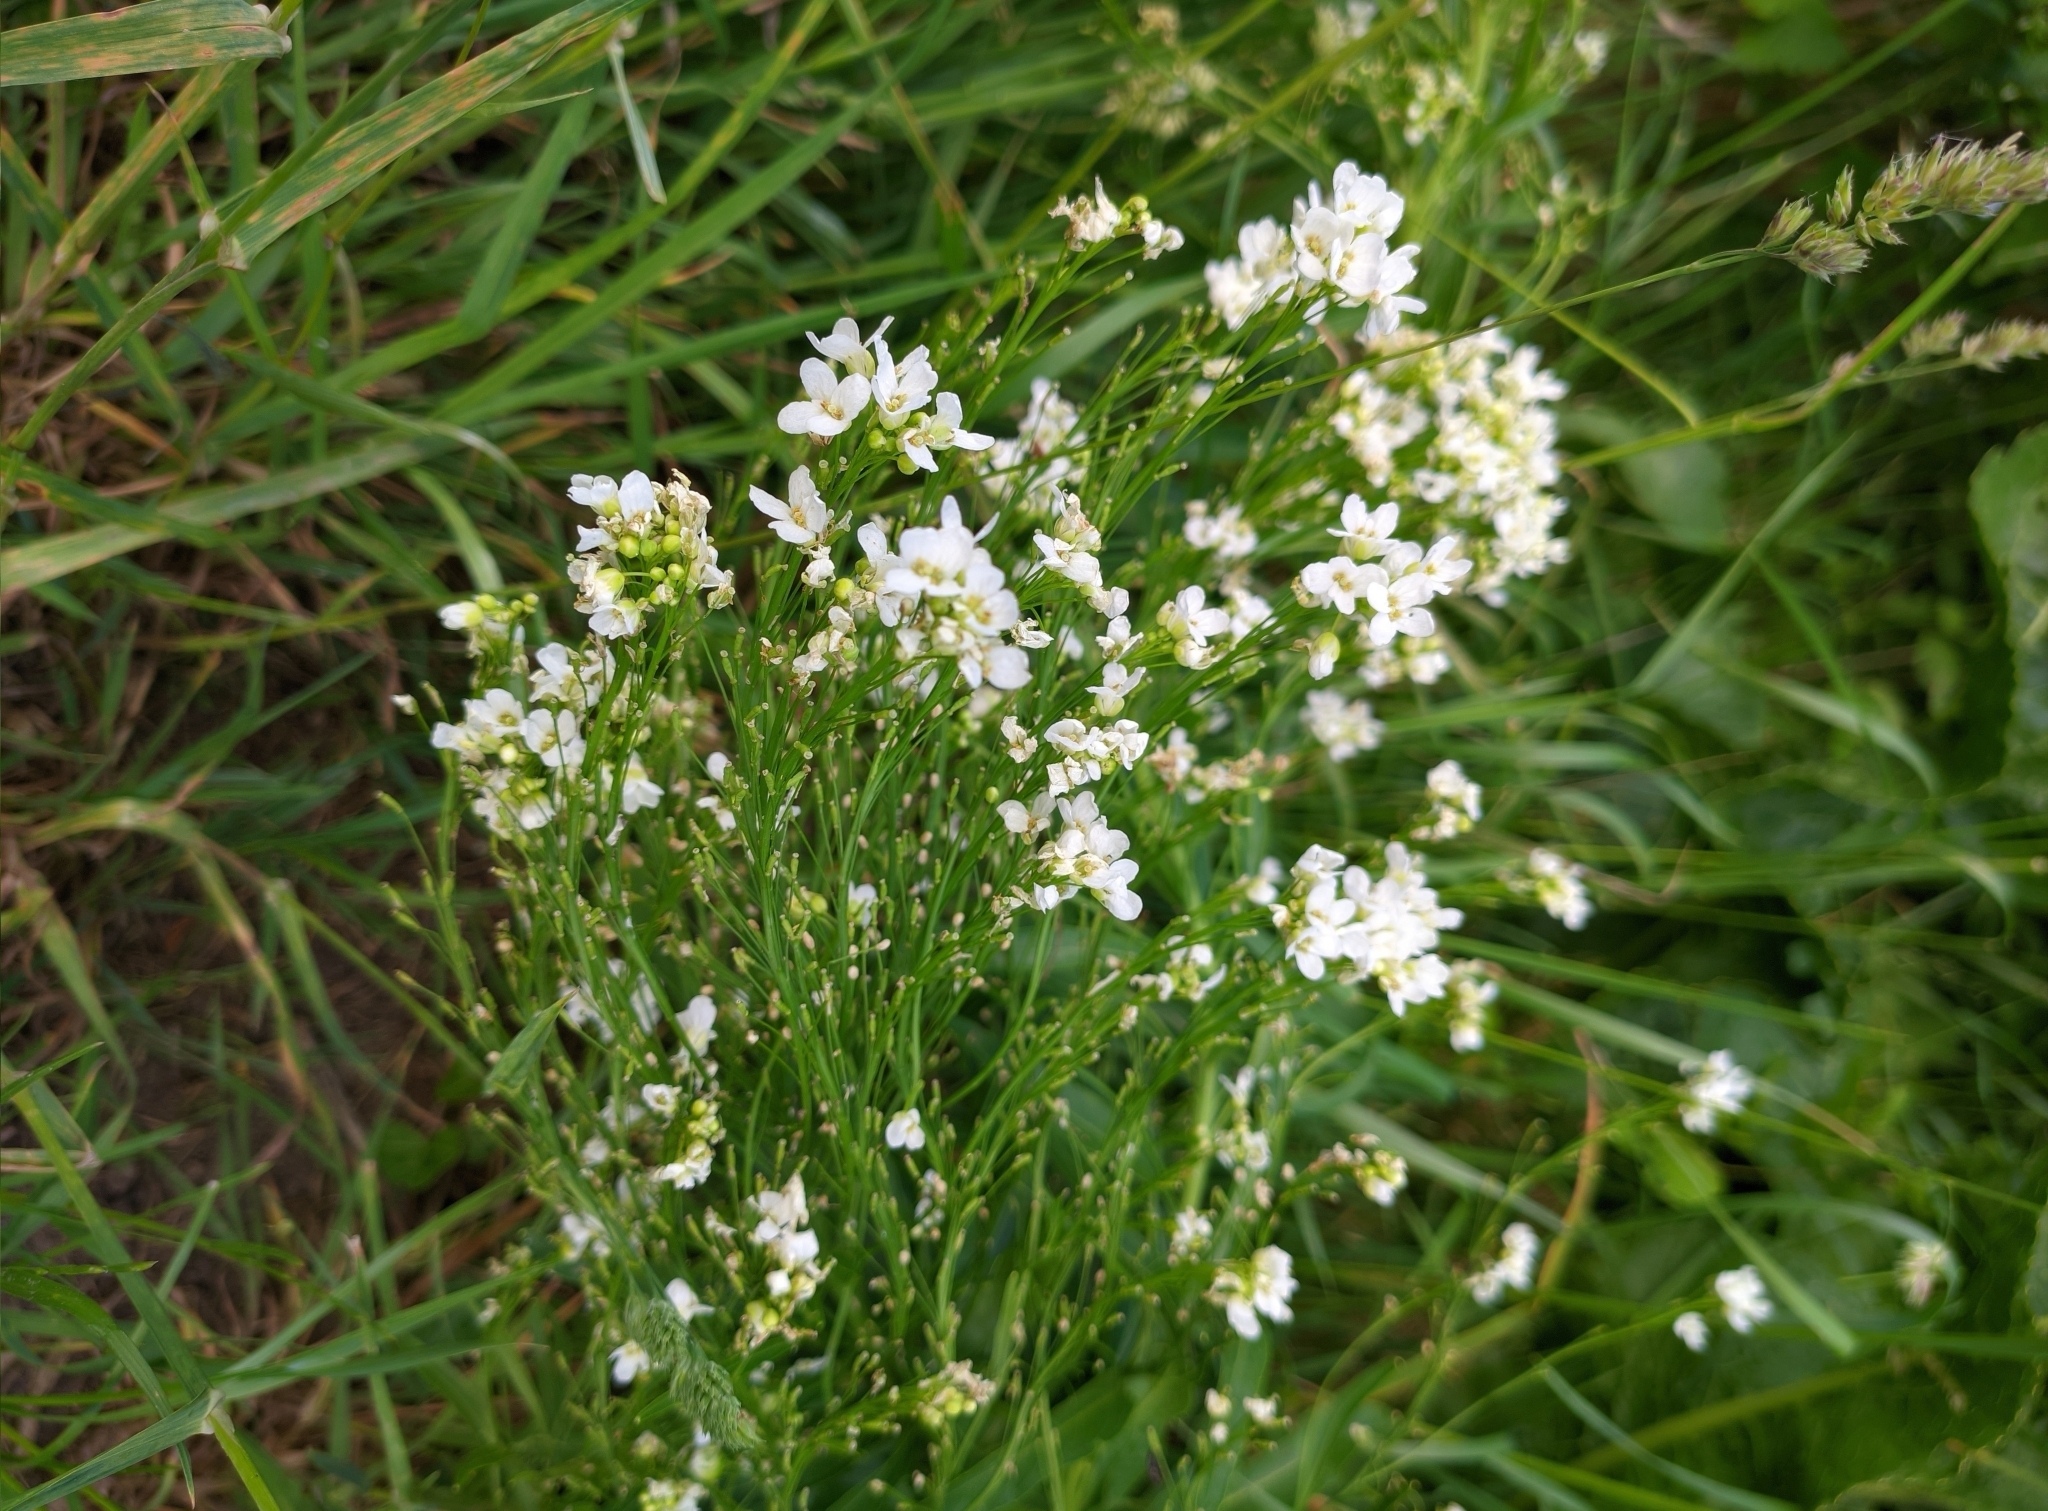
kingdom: Plantae
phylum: Tracheophyta
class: Magnoliopsida
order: Brassicales
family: Brassicaceae
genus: Armoracia
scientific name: Armoracia rusticana
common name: Horseradish
